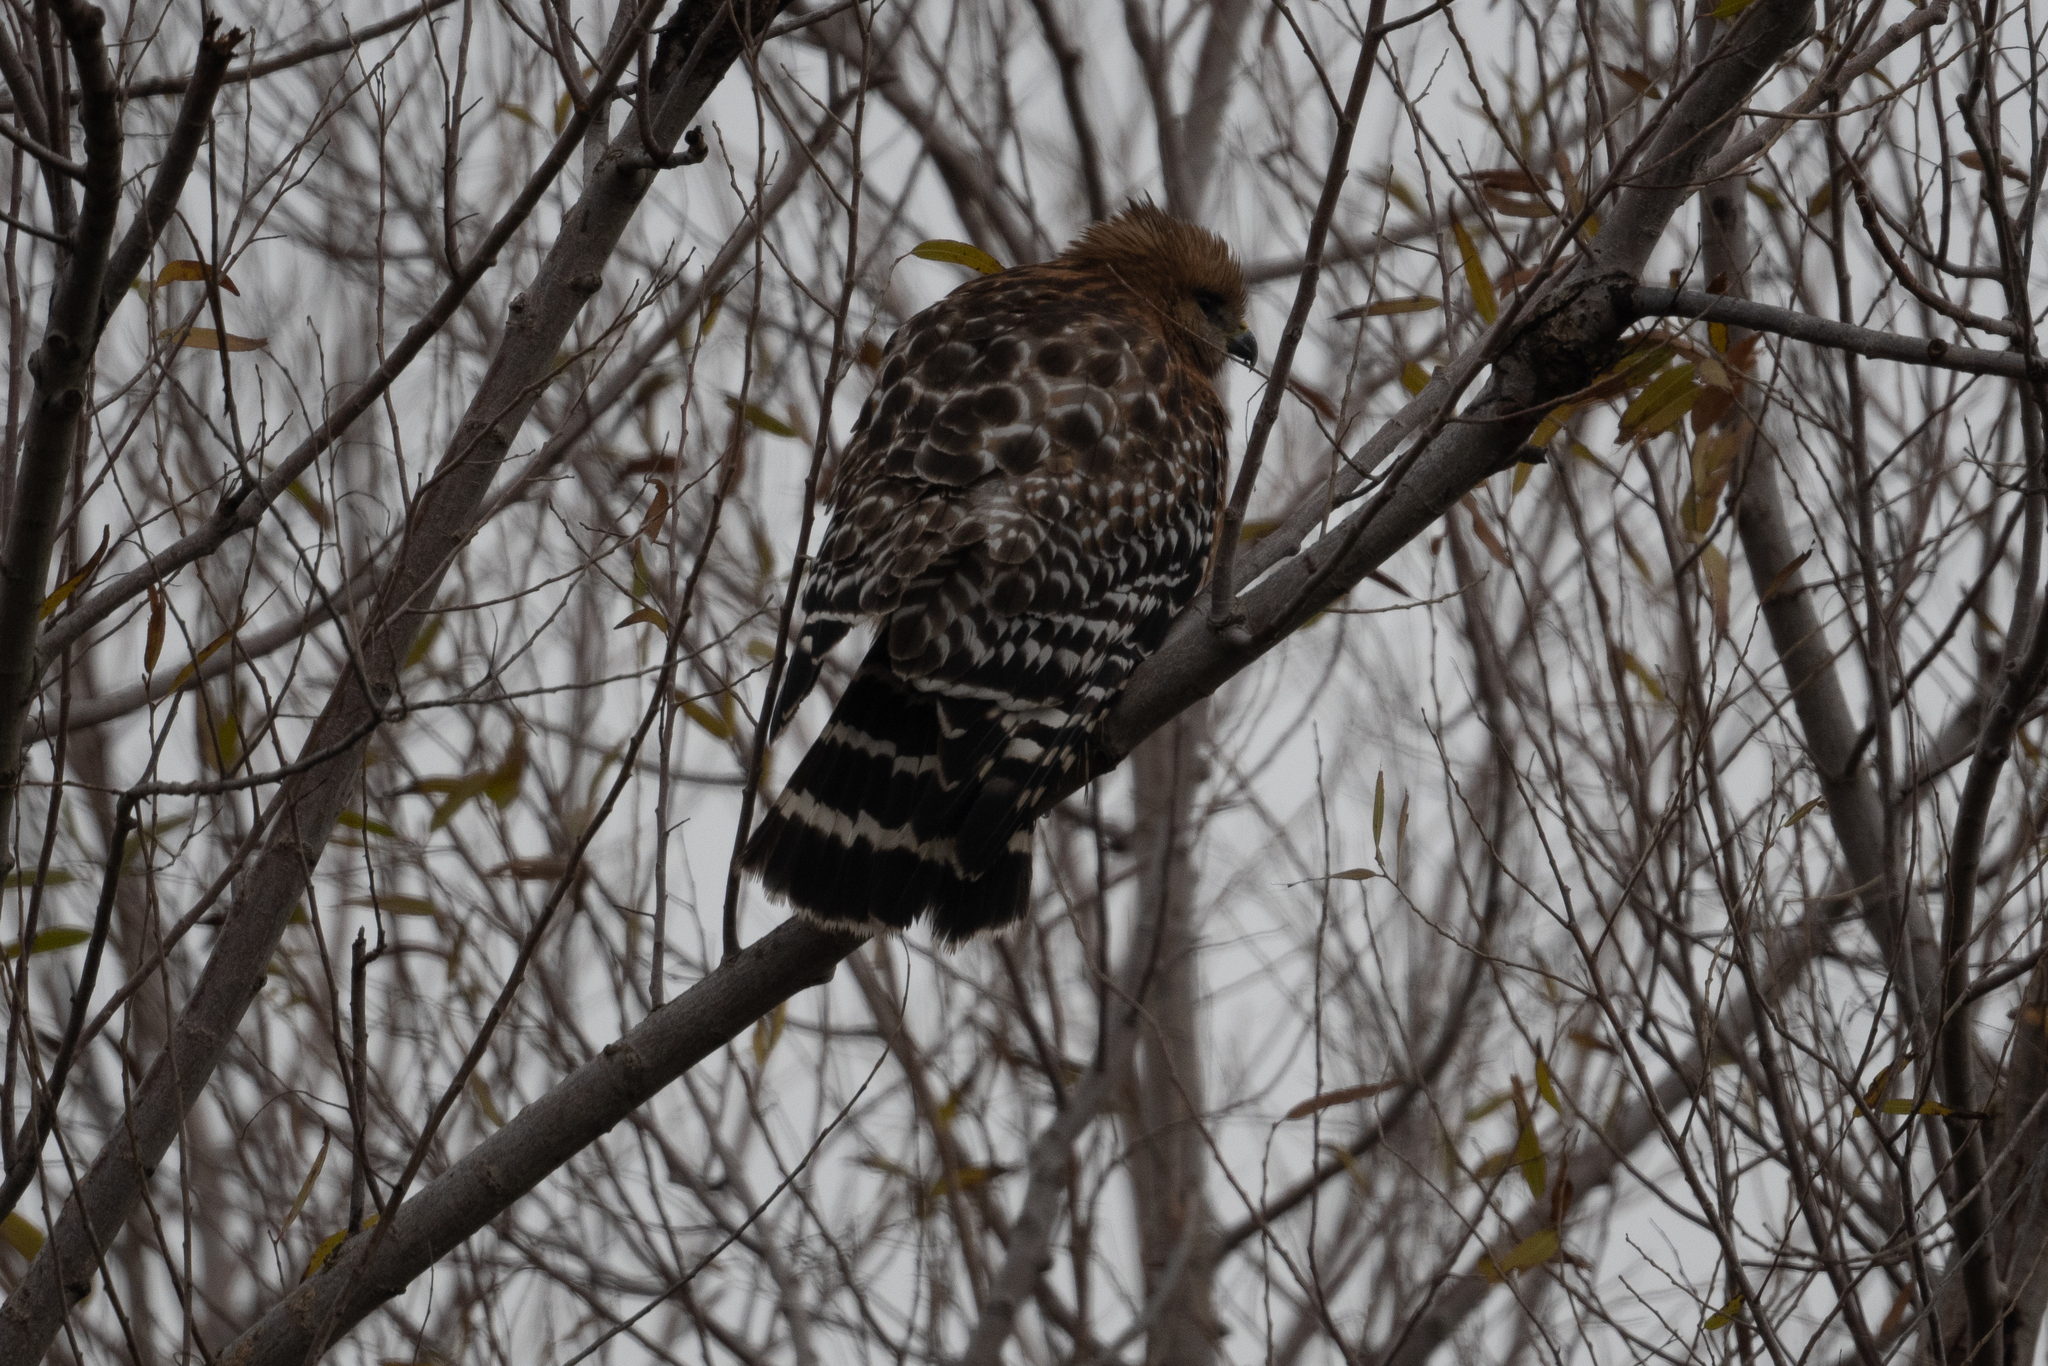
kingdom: Animalia
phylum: Chordata
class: Aves
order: Accipitriformes
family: Accipitridae
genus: Buteo
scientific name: Buteo lineatus
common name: Red-shouldered hawk
